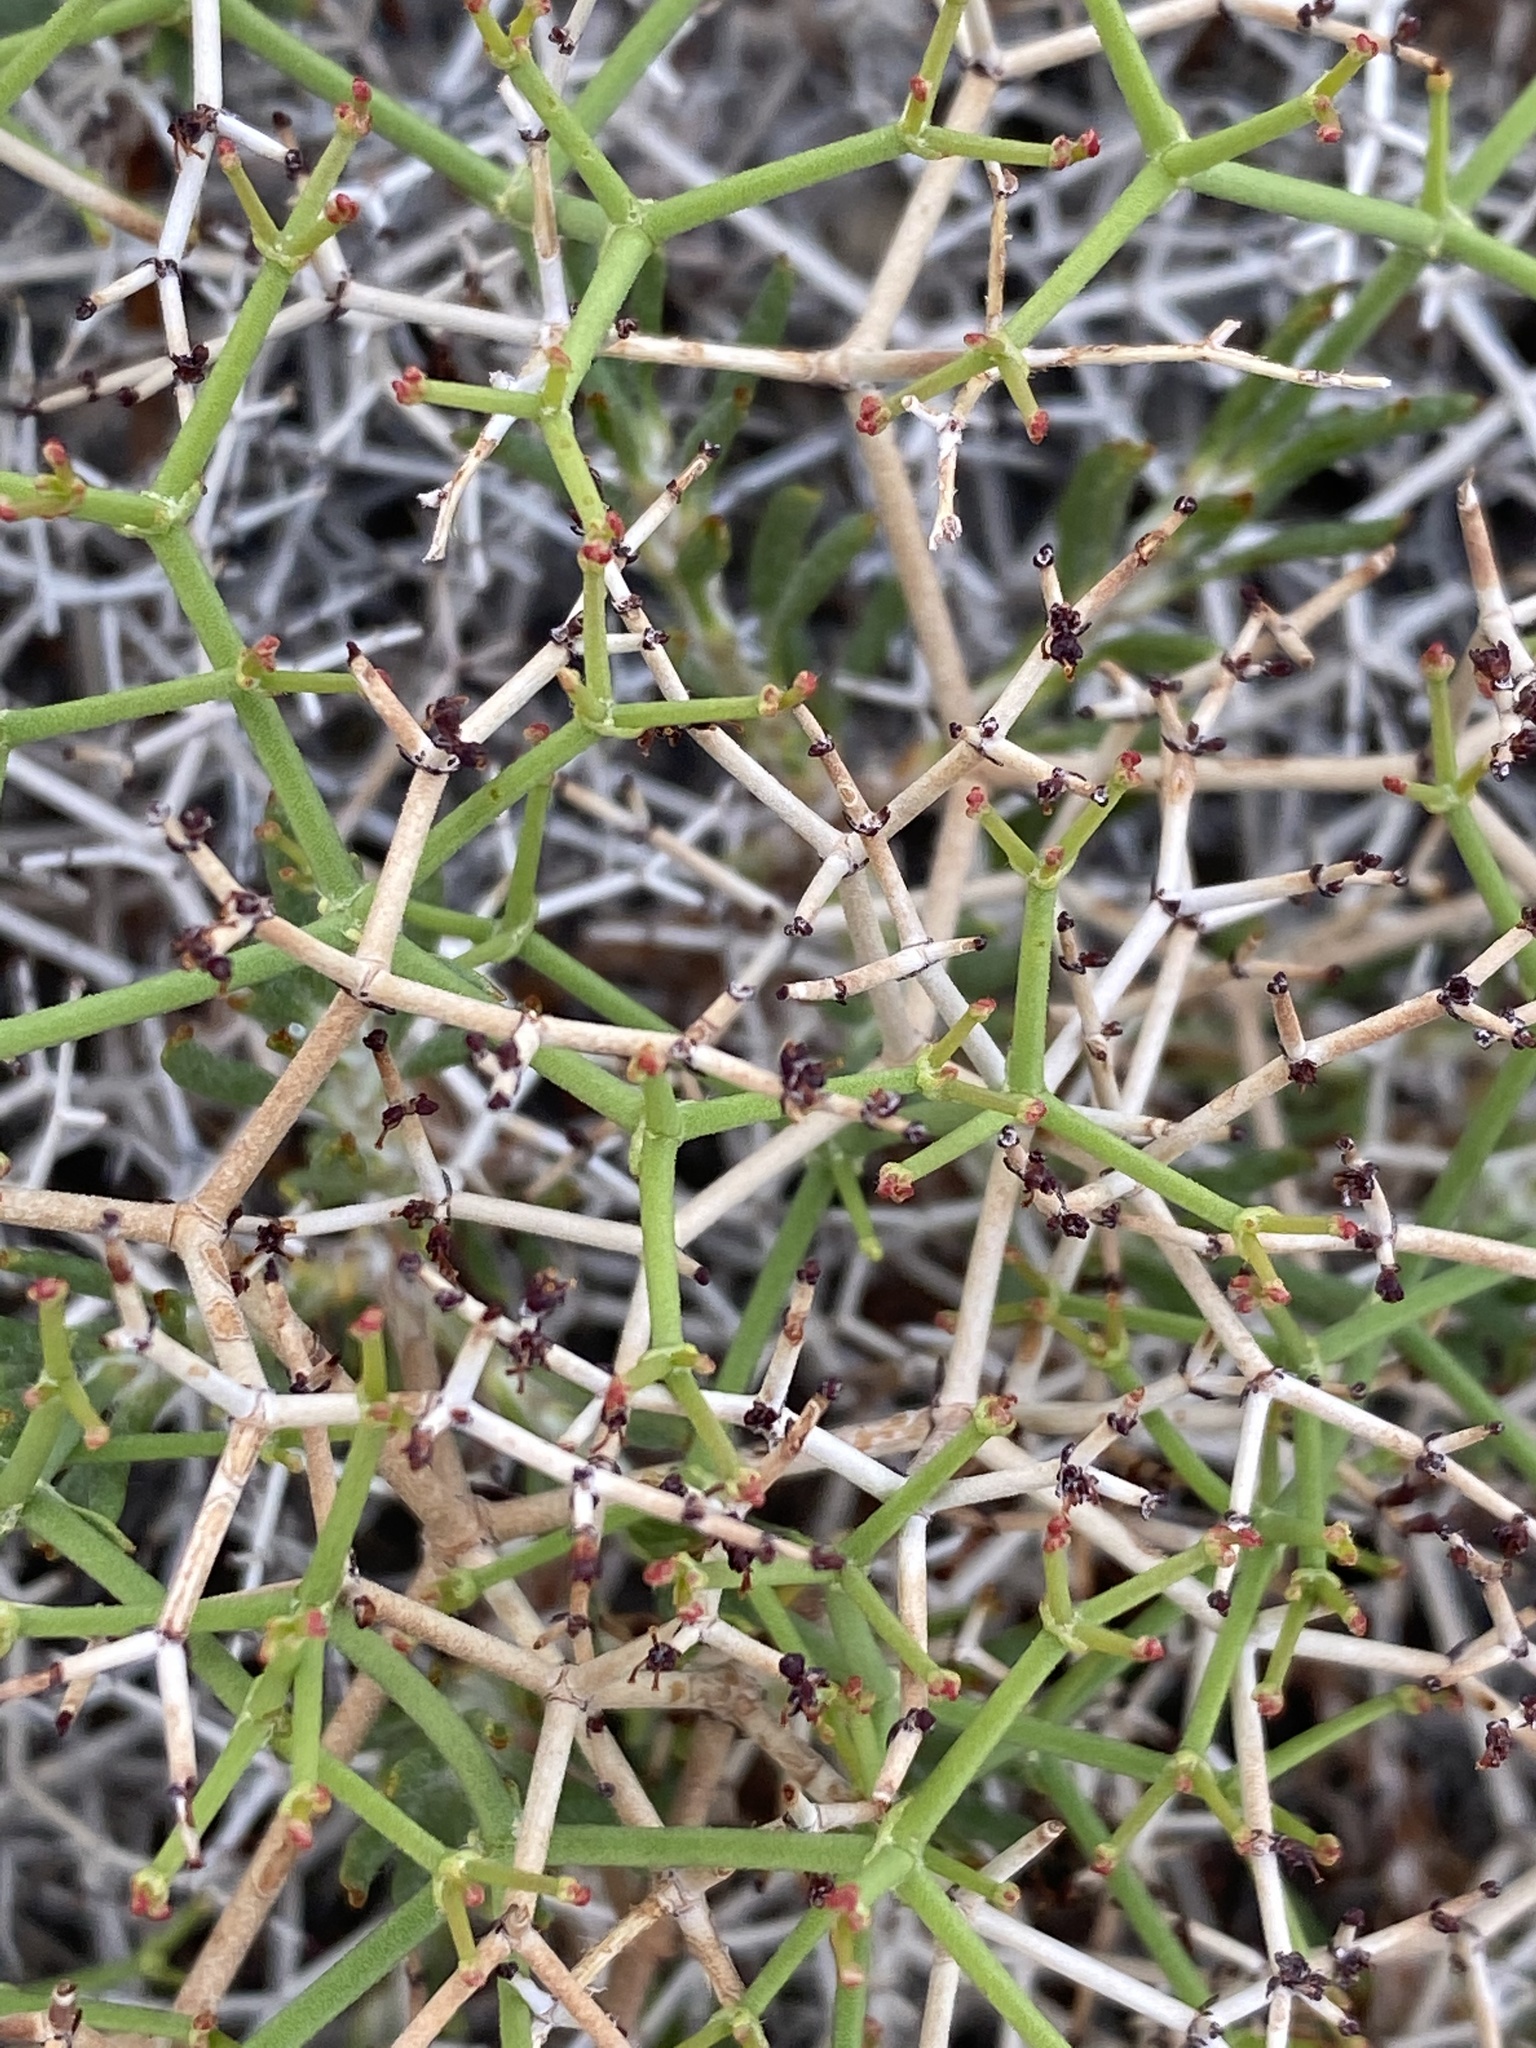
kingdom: Plantae
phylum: Tracheophyta
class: Magnoliopsida
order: Caryophyllales
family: Polygonaceae
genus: Eriogonum
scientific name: Eriogonum heermannii
